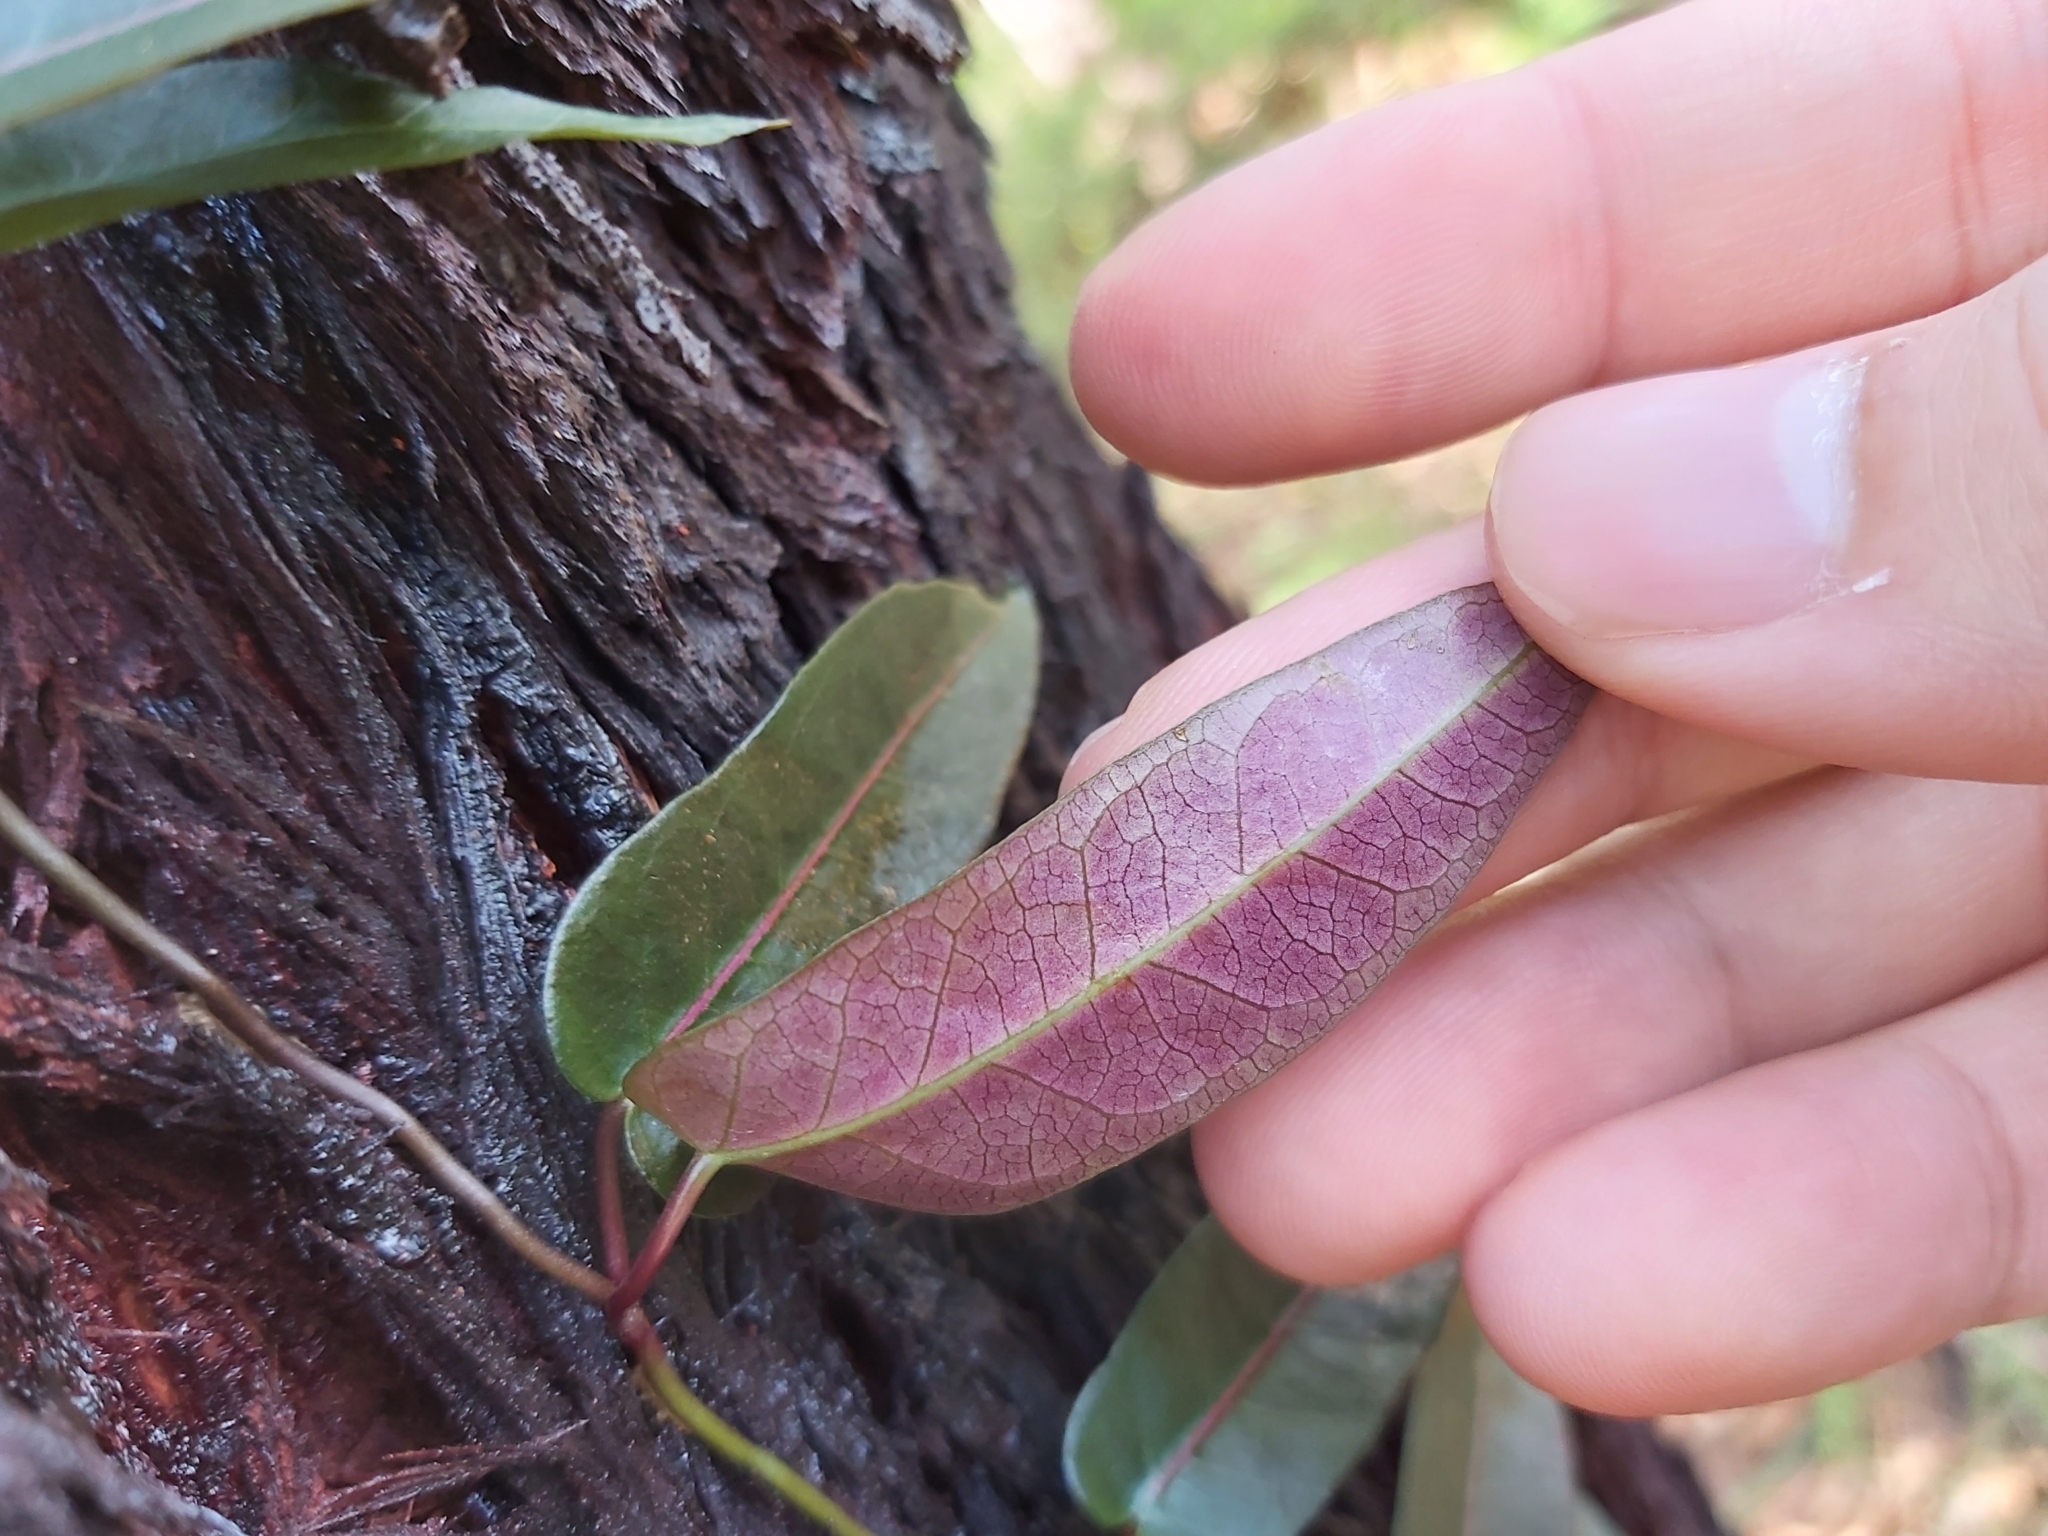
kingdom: Plantae
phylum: Tracheophyta
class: Magnoliopsida
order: Gentianales
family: Apocynaceae
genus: Parsonsia
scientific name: Parsonsia straminea
